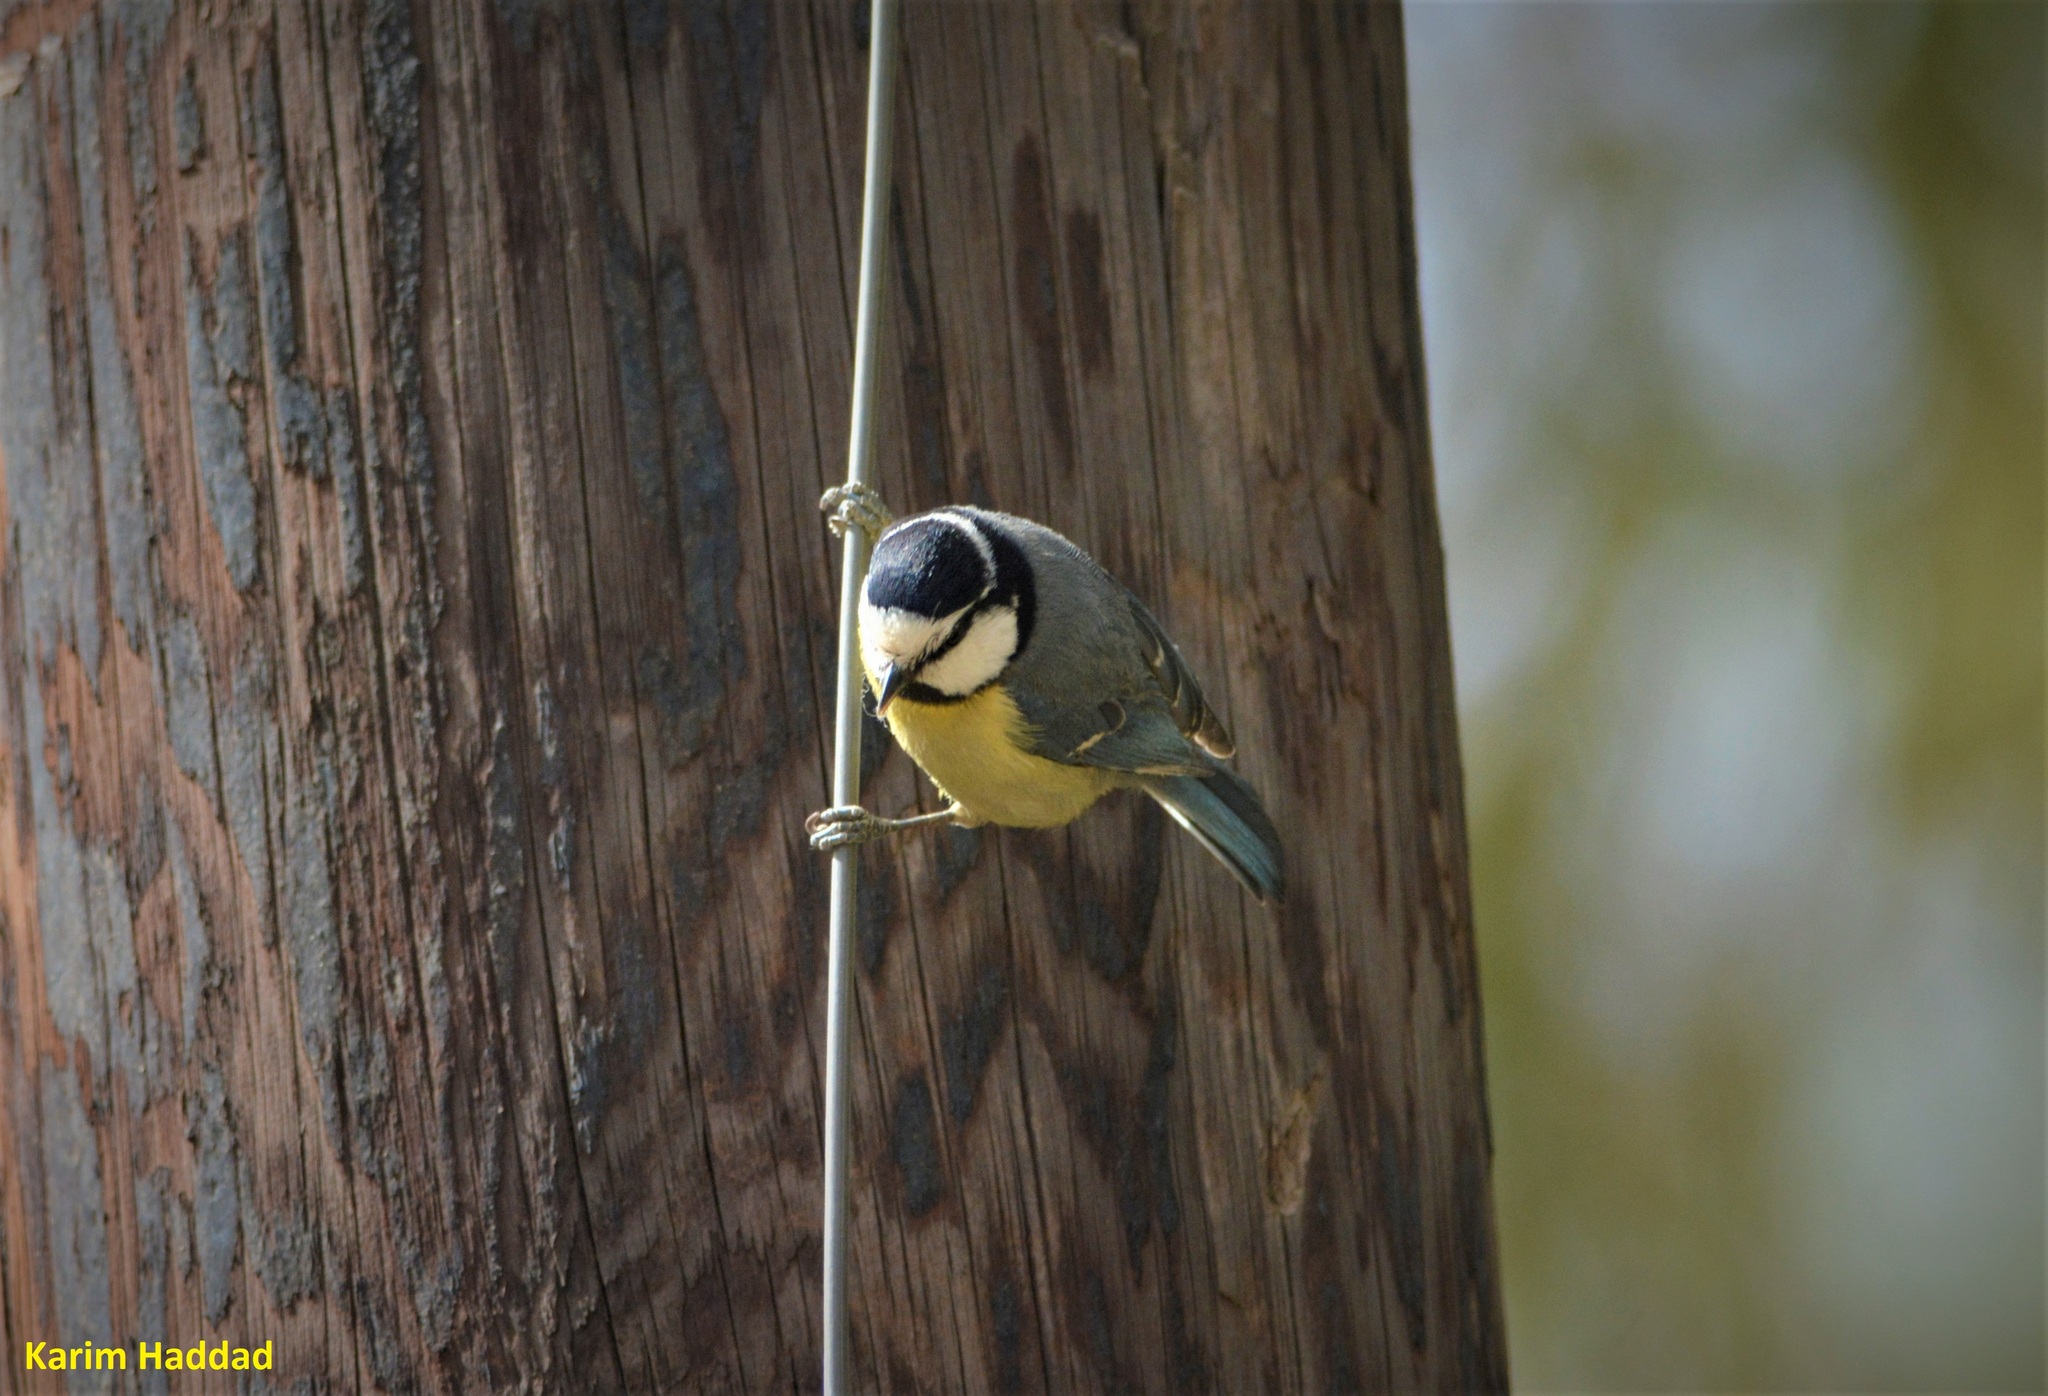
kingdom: Animalia
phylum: Chordata
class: Aves
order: Passeriformes
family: Paridae
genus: Cyanistes
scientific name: Cyanistes teneriffae
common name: African blue tit
